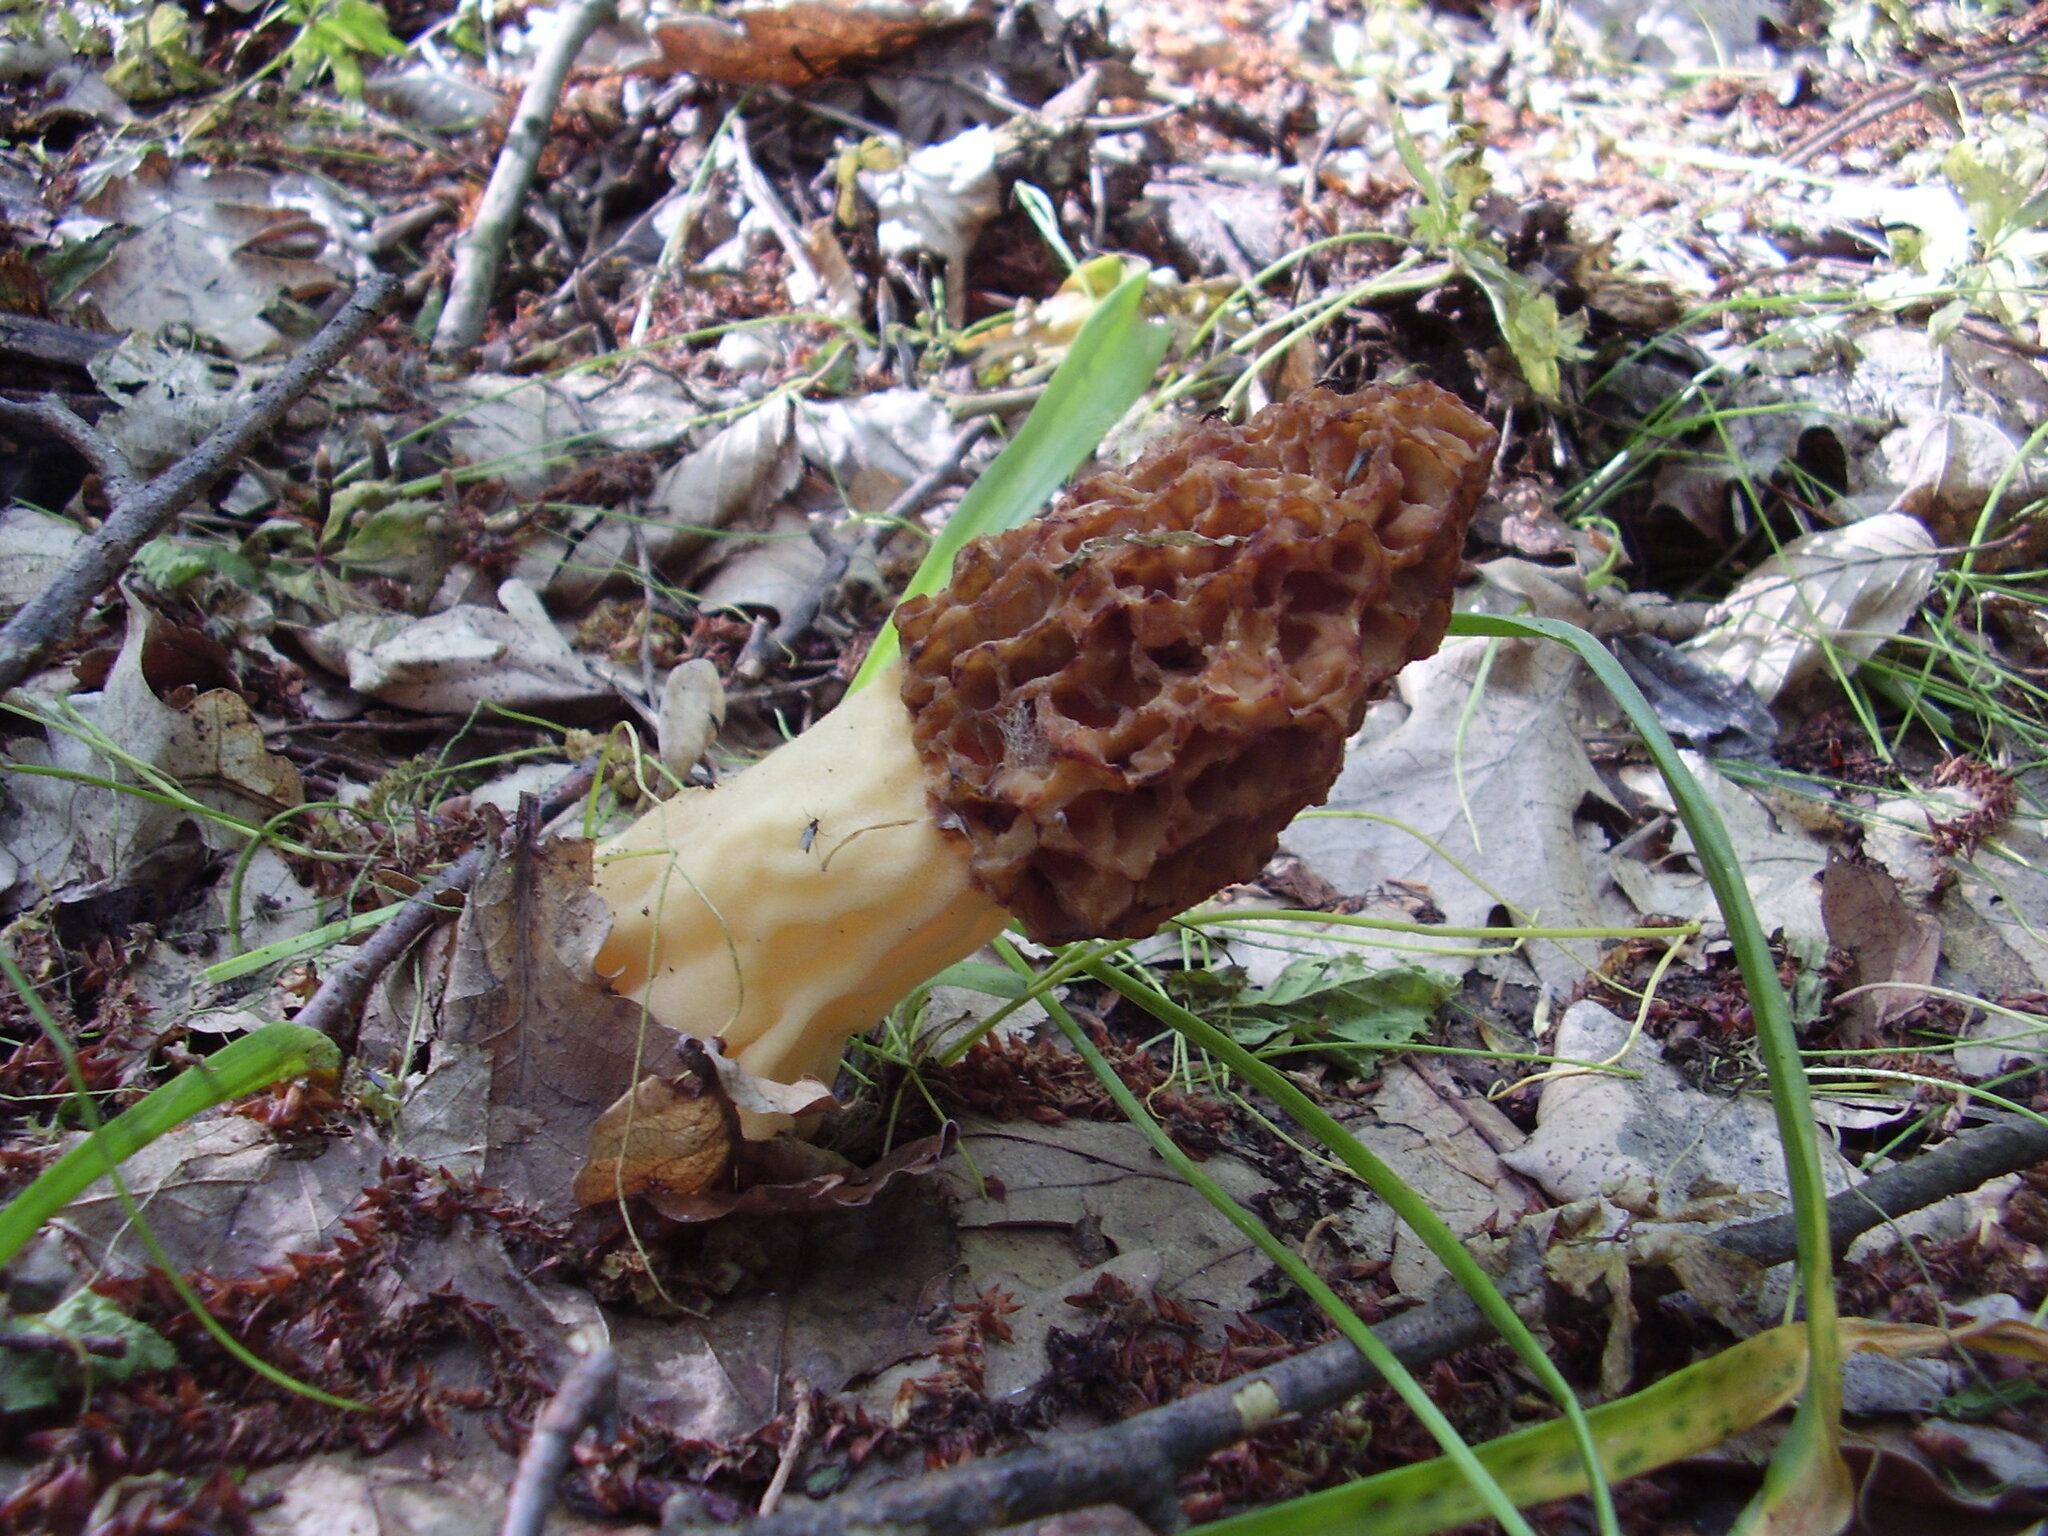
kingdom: Fungi
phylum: Ascomycota
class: Pezizomycetes
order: Pezizales
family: Morchellaceae
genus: Morchella
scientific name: Morchella
